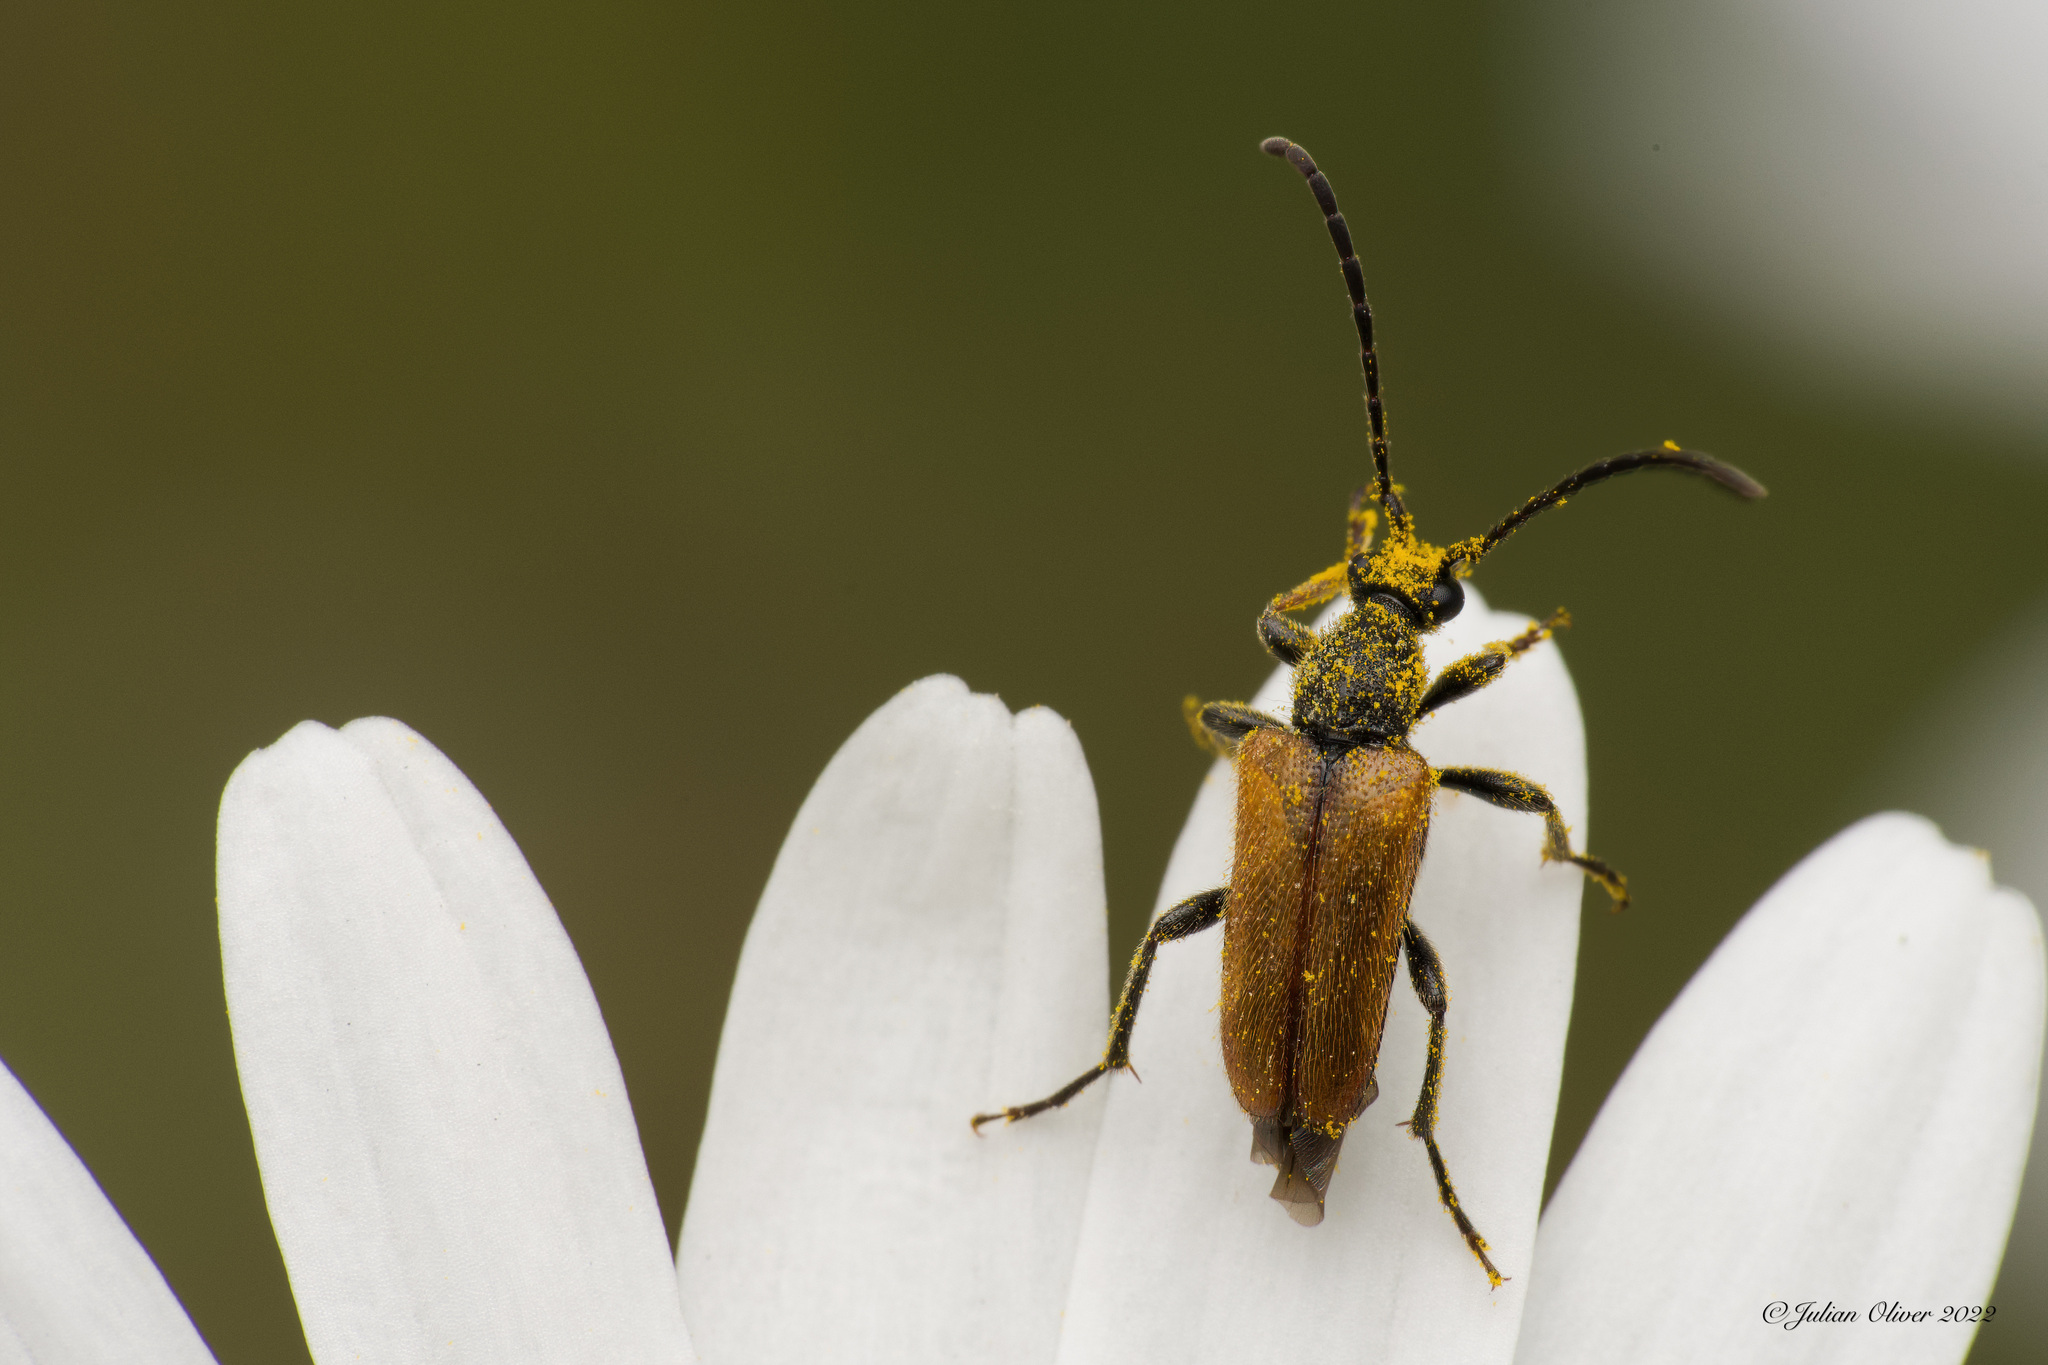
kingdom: Animalia
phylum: Arthropoda
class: Insecta
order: Coleoptera
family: Cerambycidae
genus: Pseudovadonia
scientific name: Pseudovadonia livida
